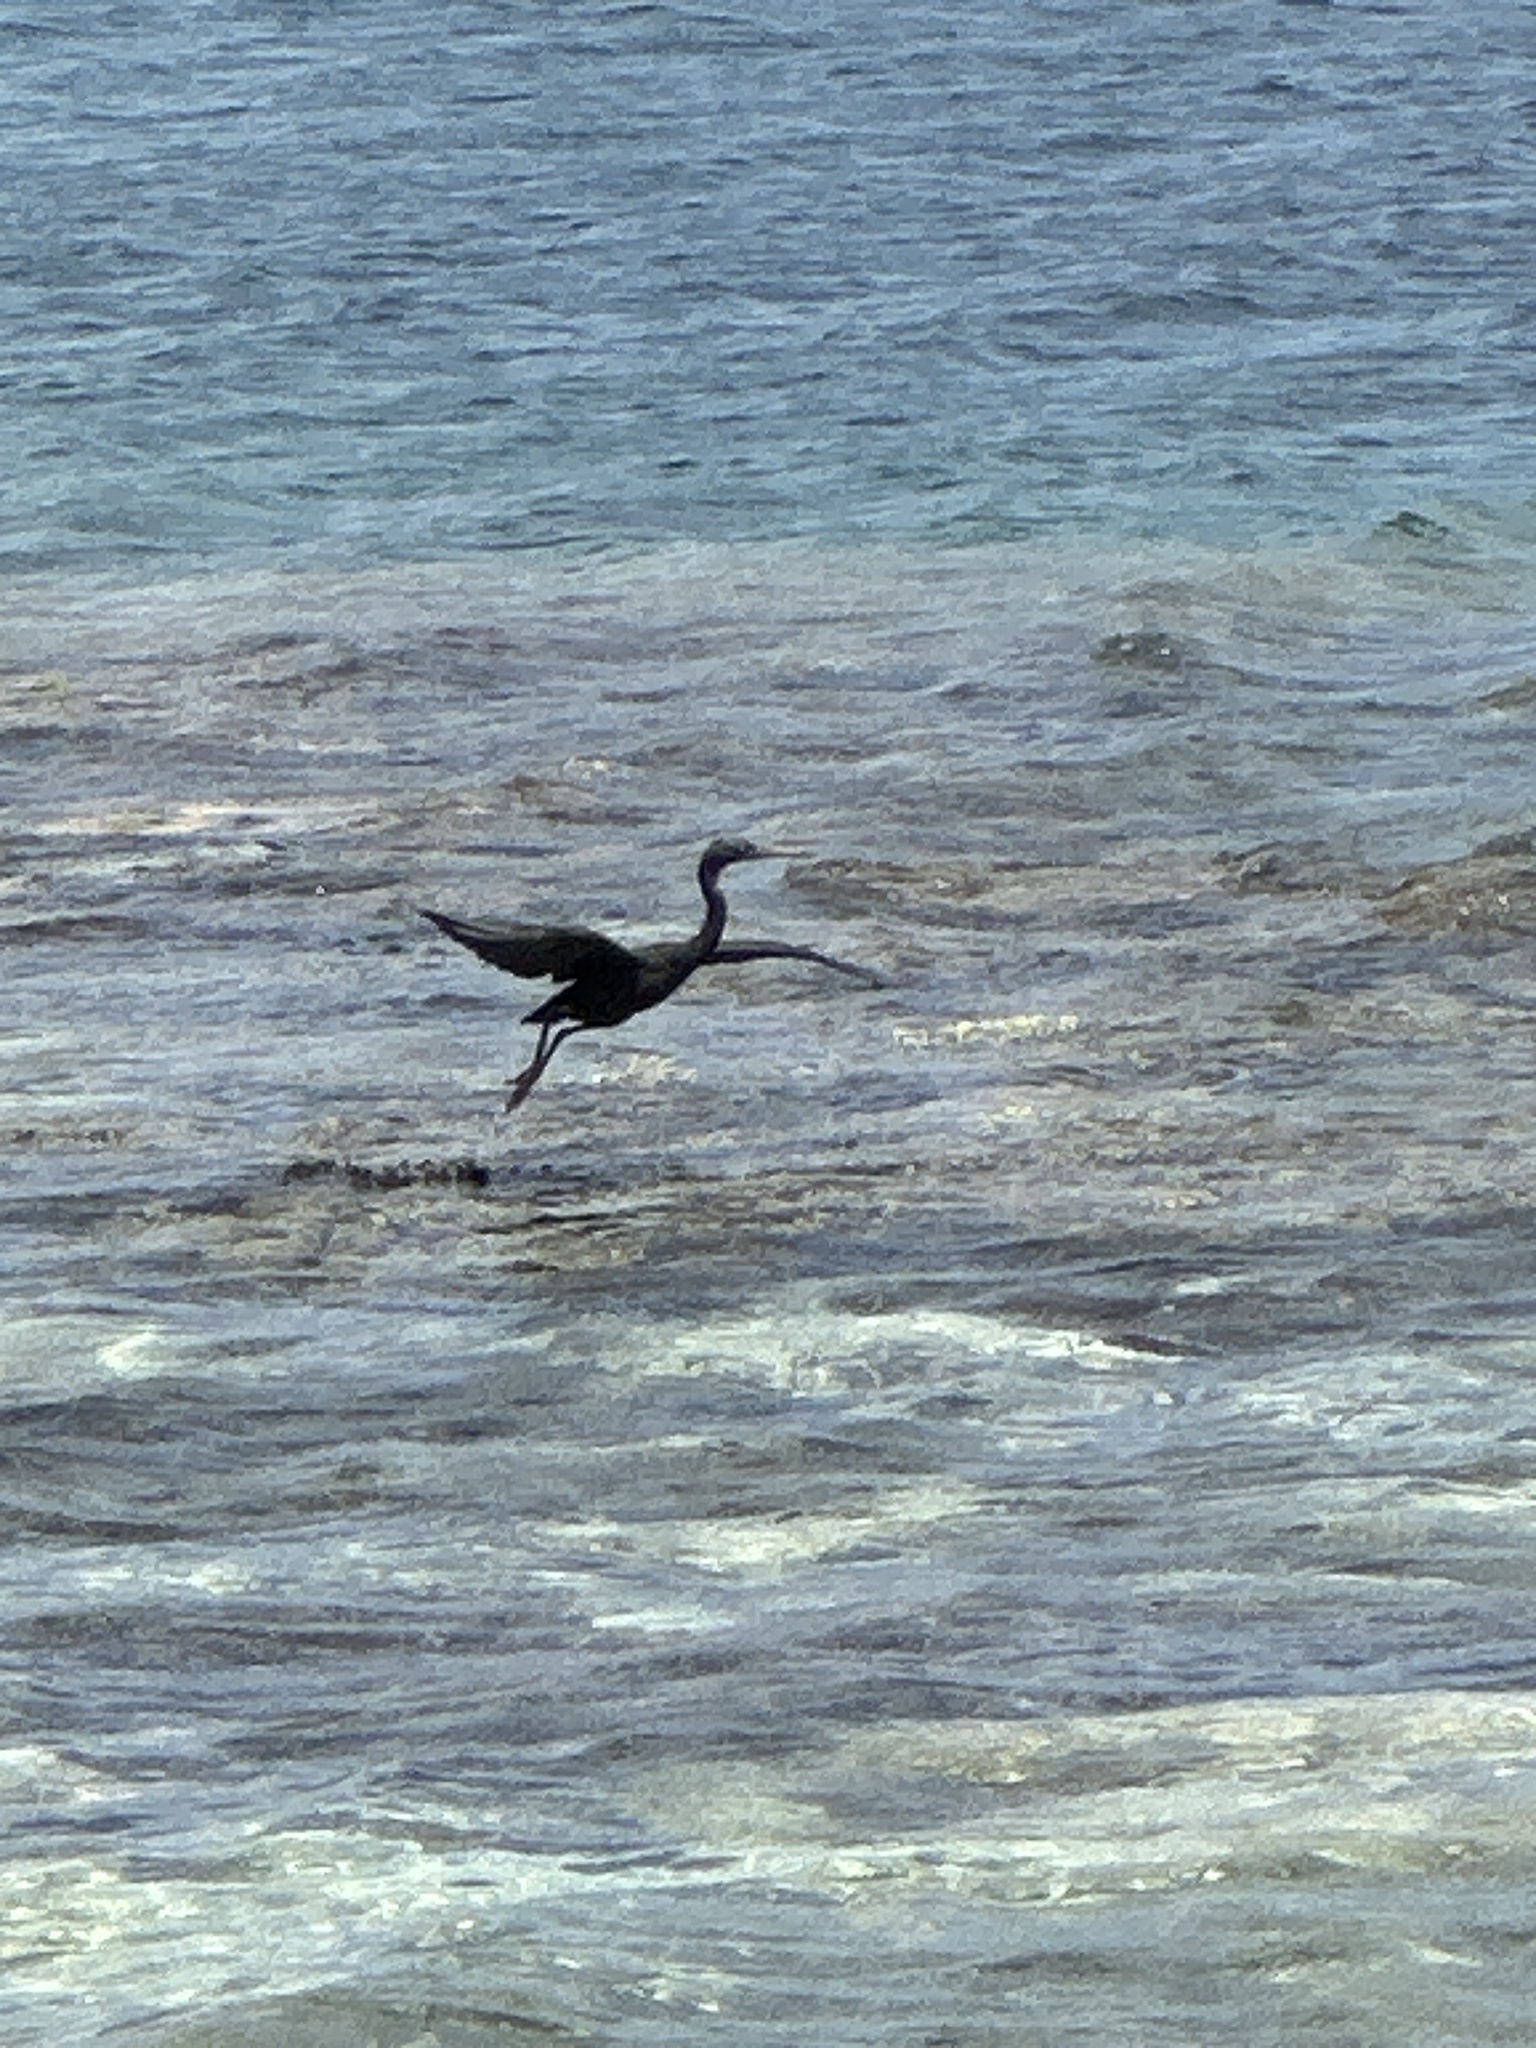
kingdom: Animalia
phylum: Chordata
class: Aves
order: Pelecaniformes
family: Ardeidae
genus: Egretta
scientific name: Egretta sacra
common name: Pacific reef heron
